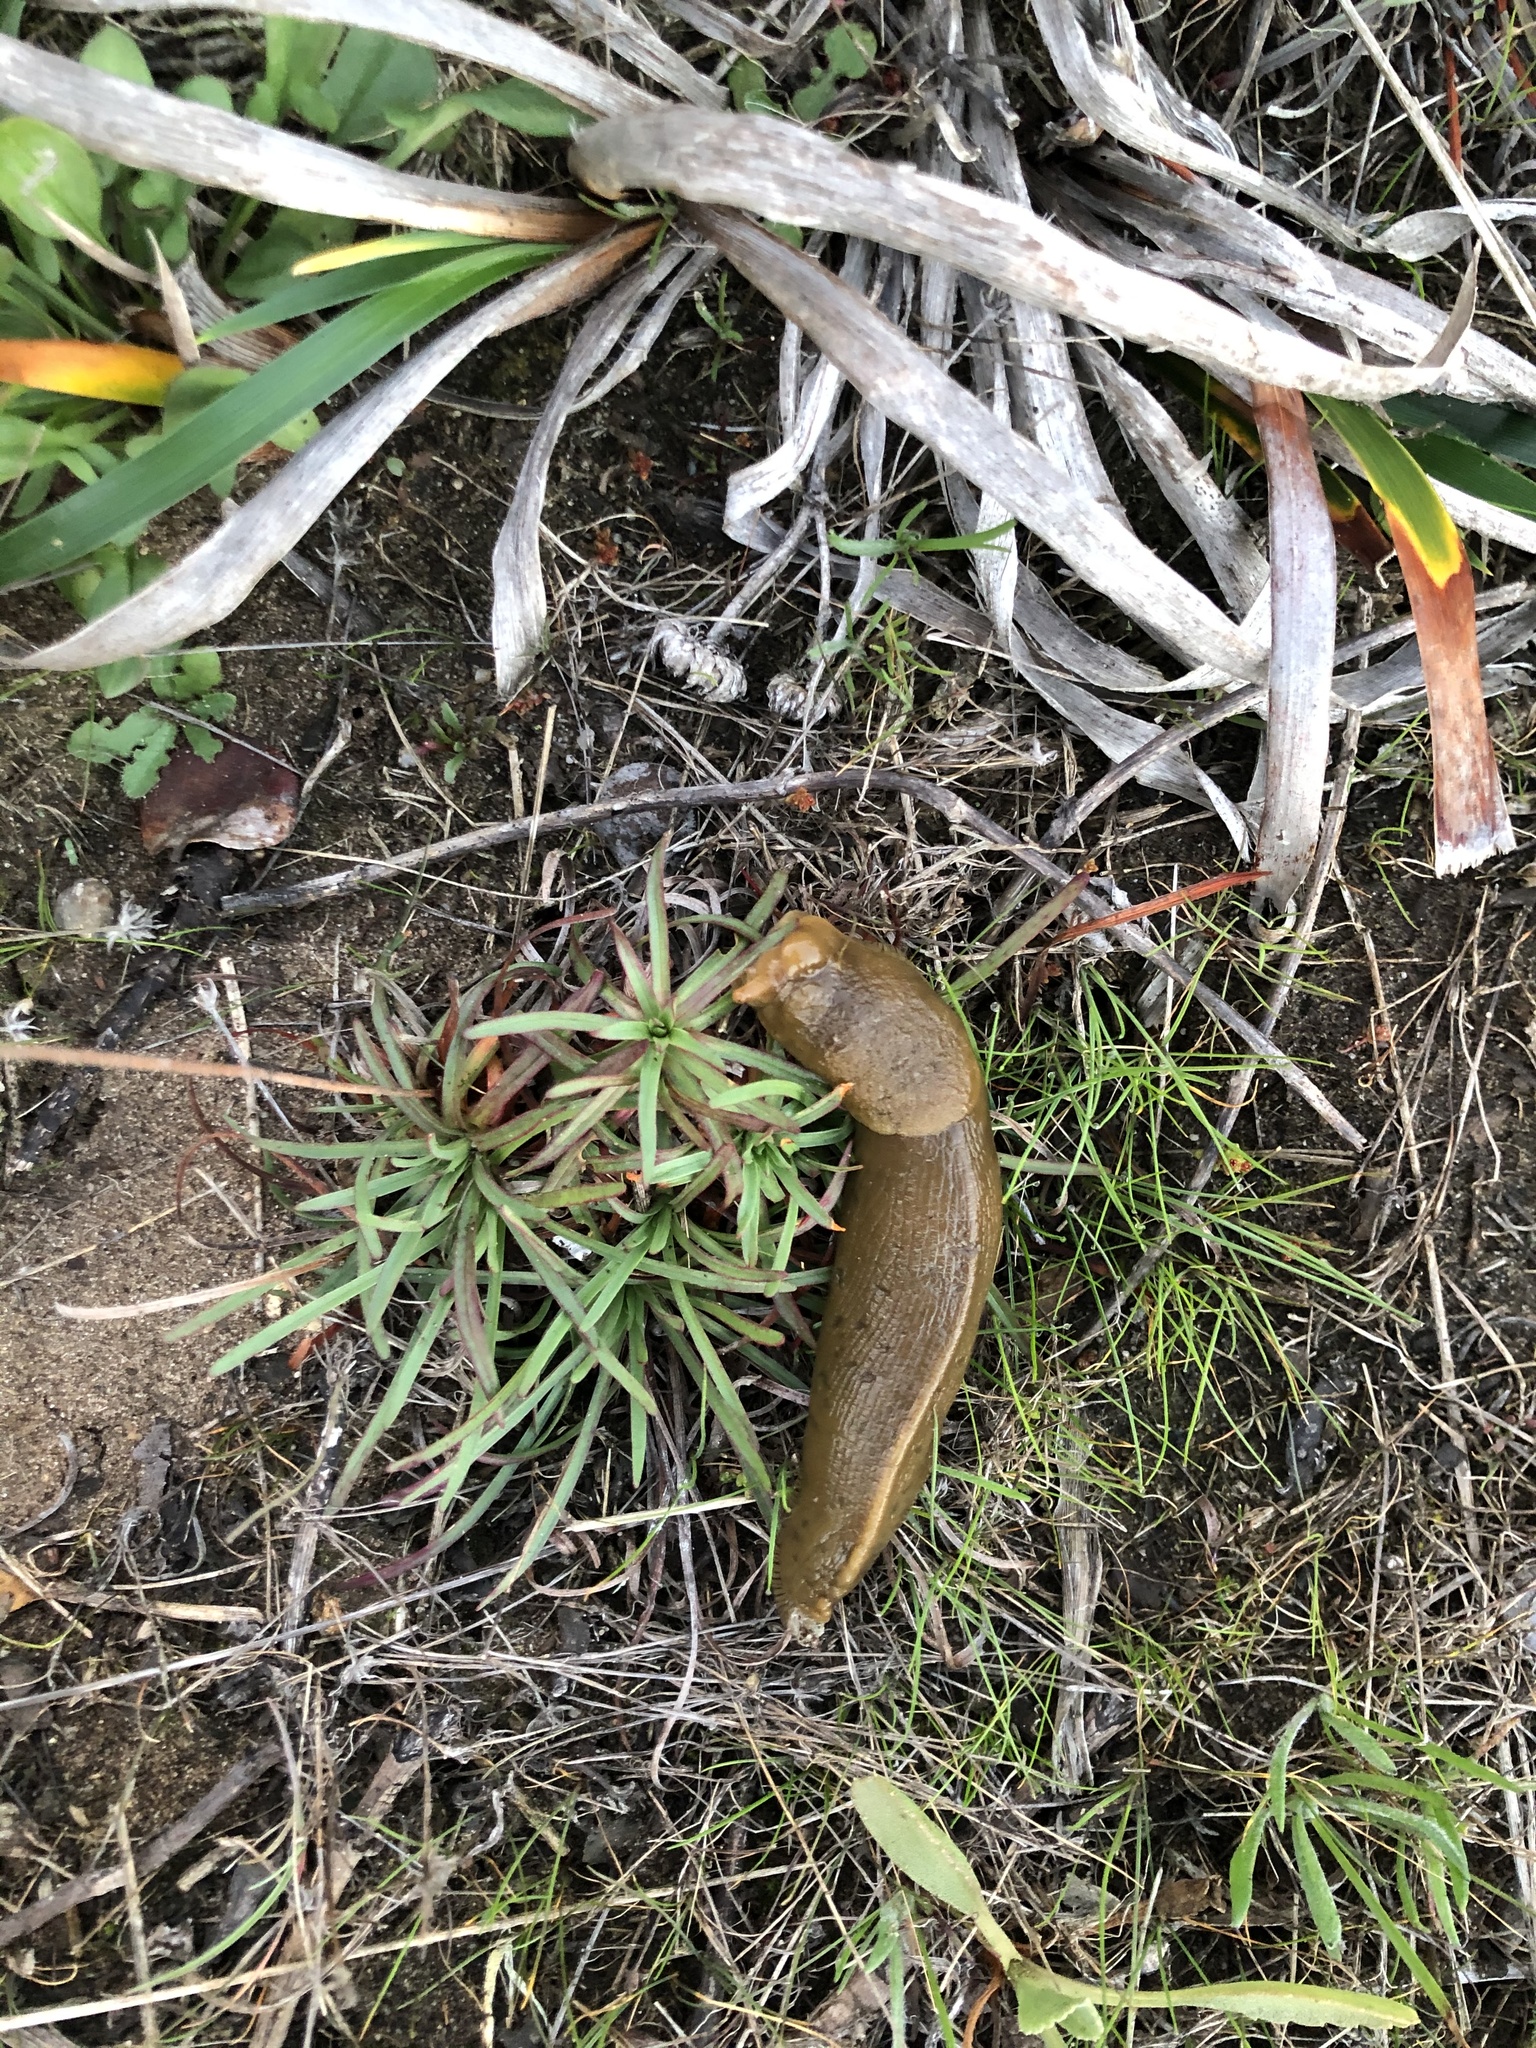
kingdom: Animalia
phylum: Mollusca
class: Gastropoda
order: Stylommatophora
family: Ariolimacidae
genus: Ariolimax
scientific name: Ariolimax buttoni
